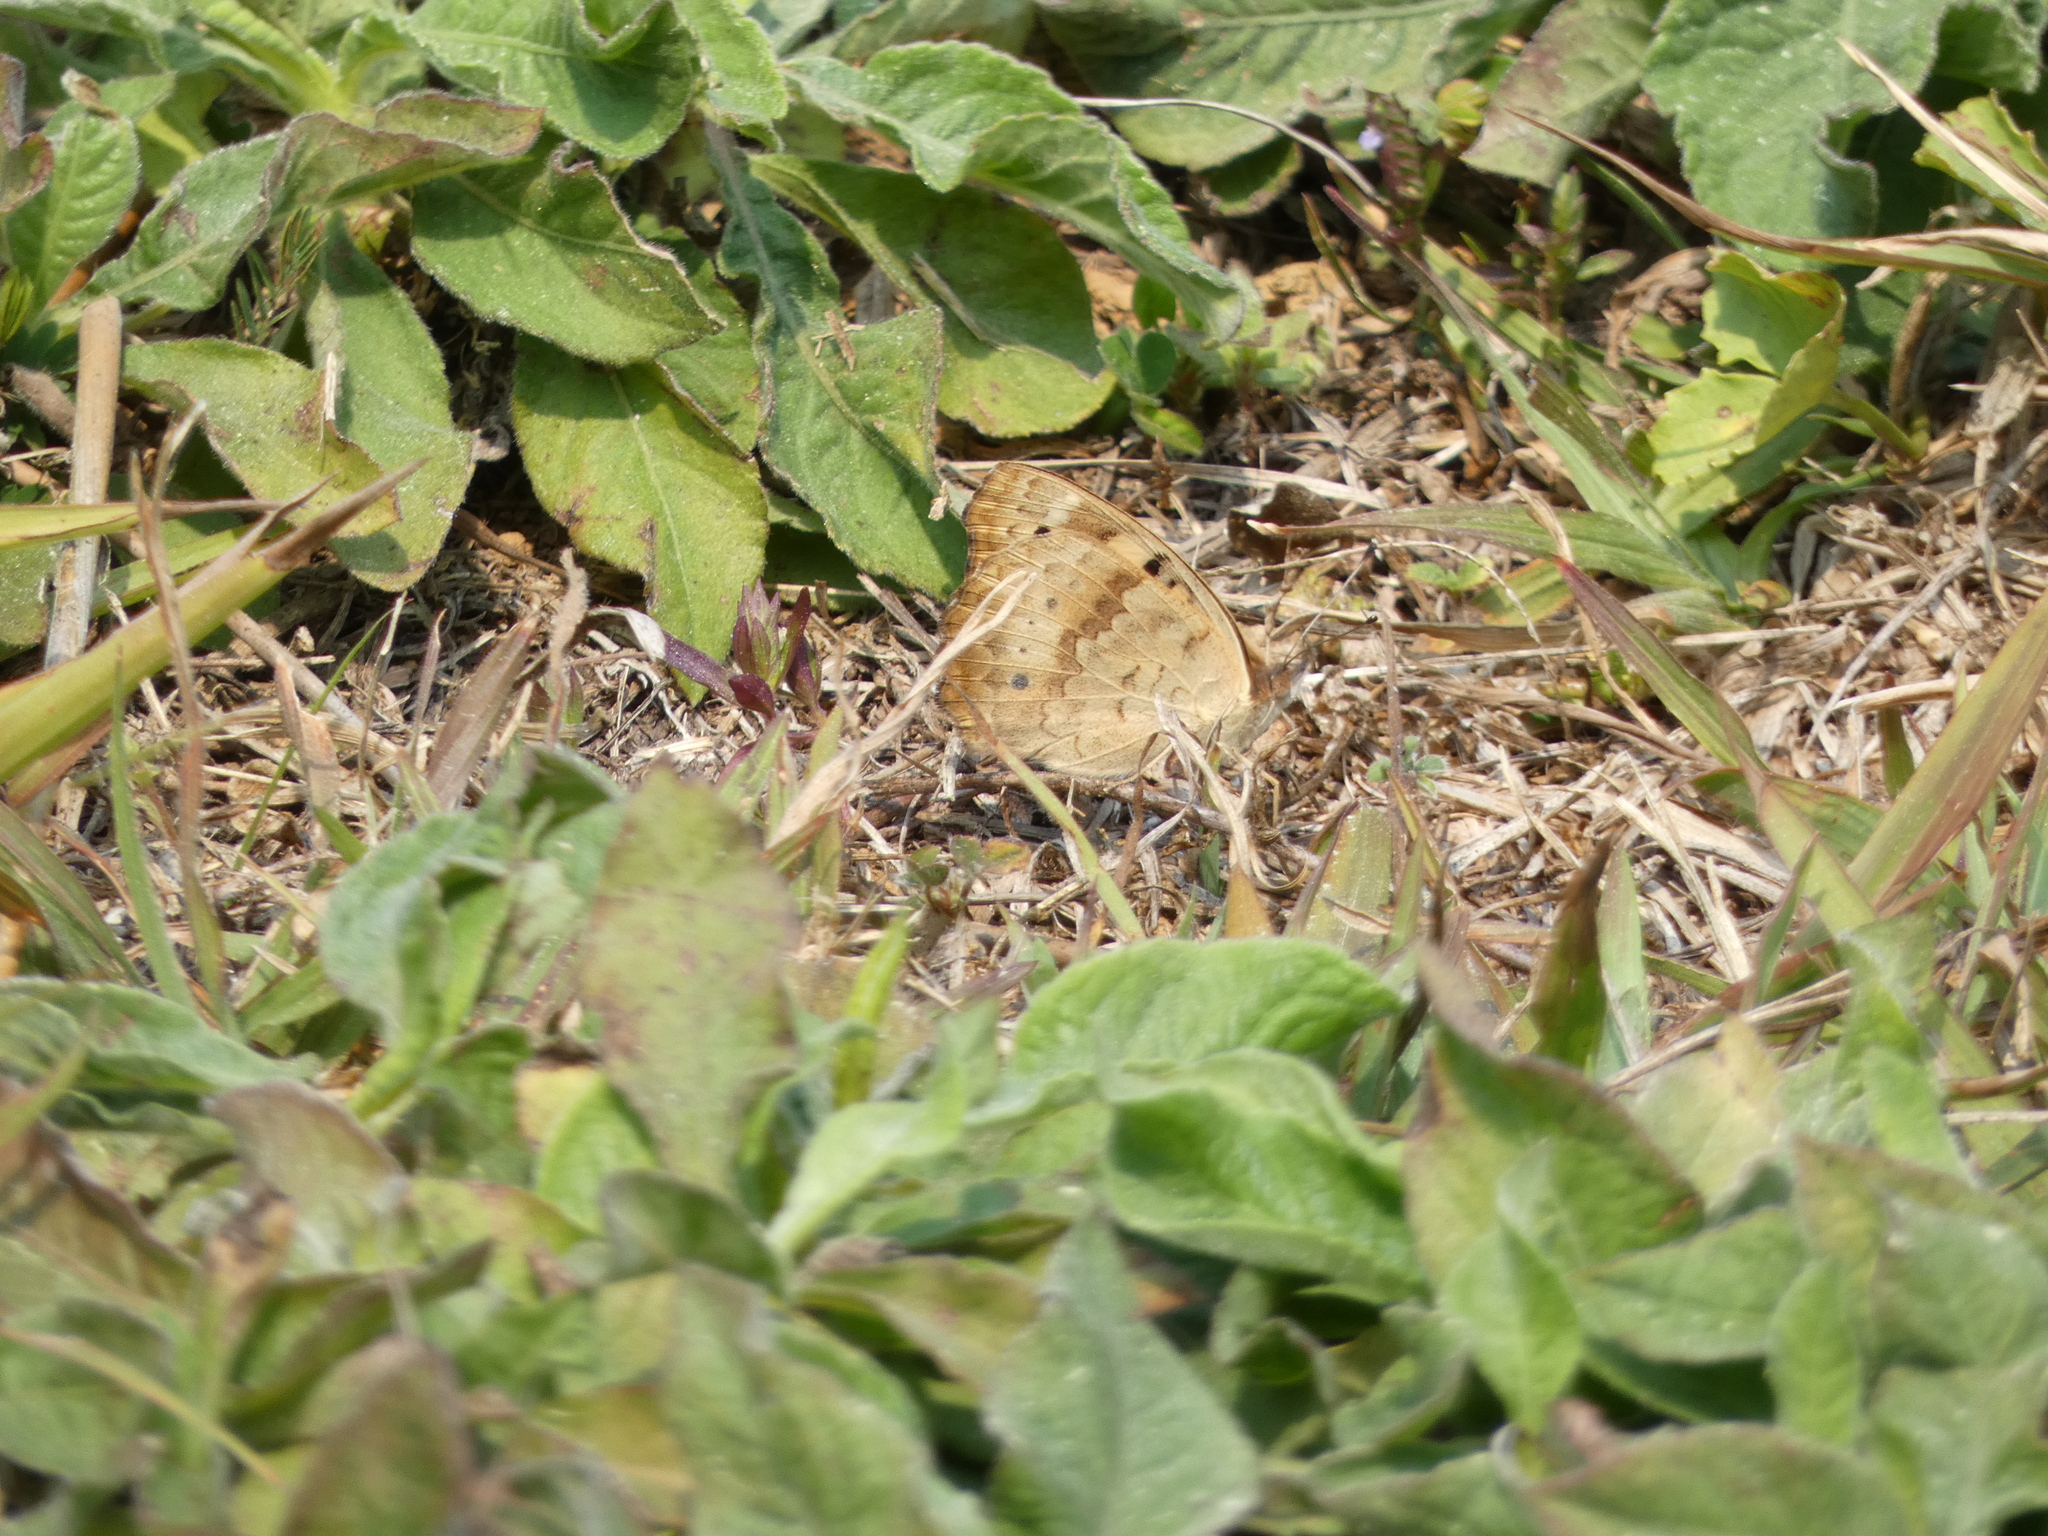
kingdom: Animalia
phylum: Arthropoda
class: Insecta
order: Lepidoptera
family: Nymphalidae
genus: Junonia
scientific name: Junonia hierta
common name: Yellow pansy
